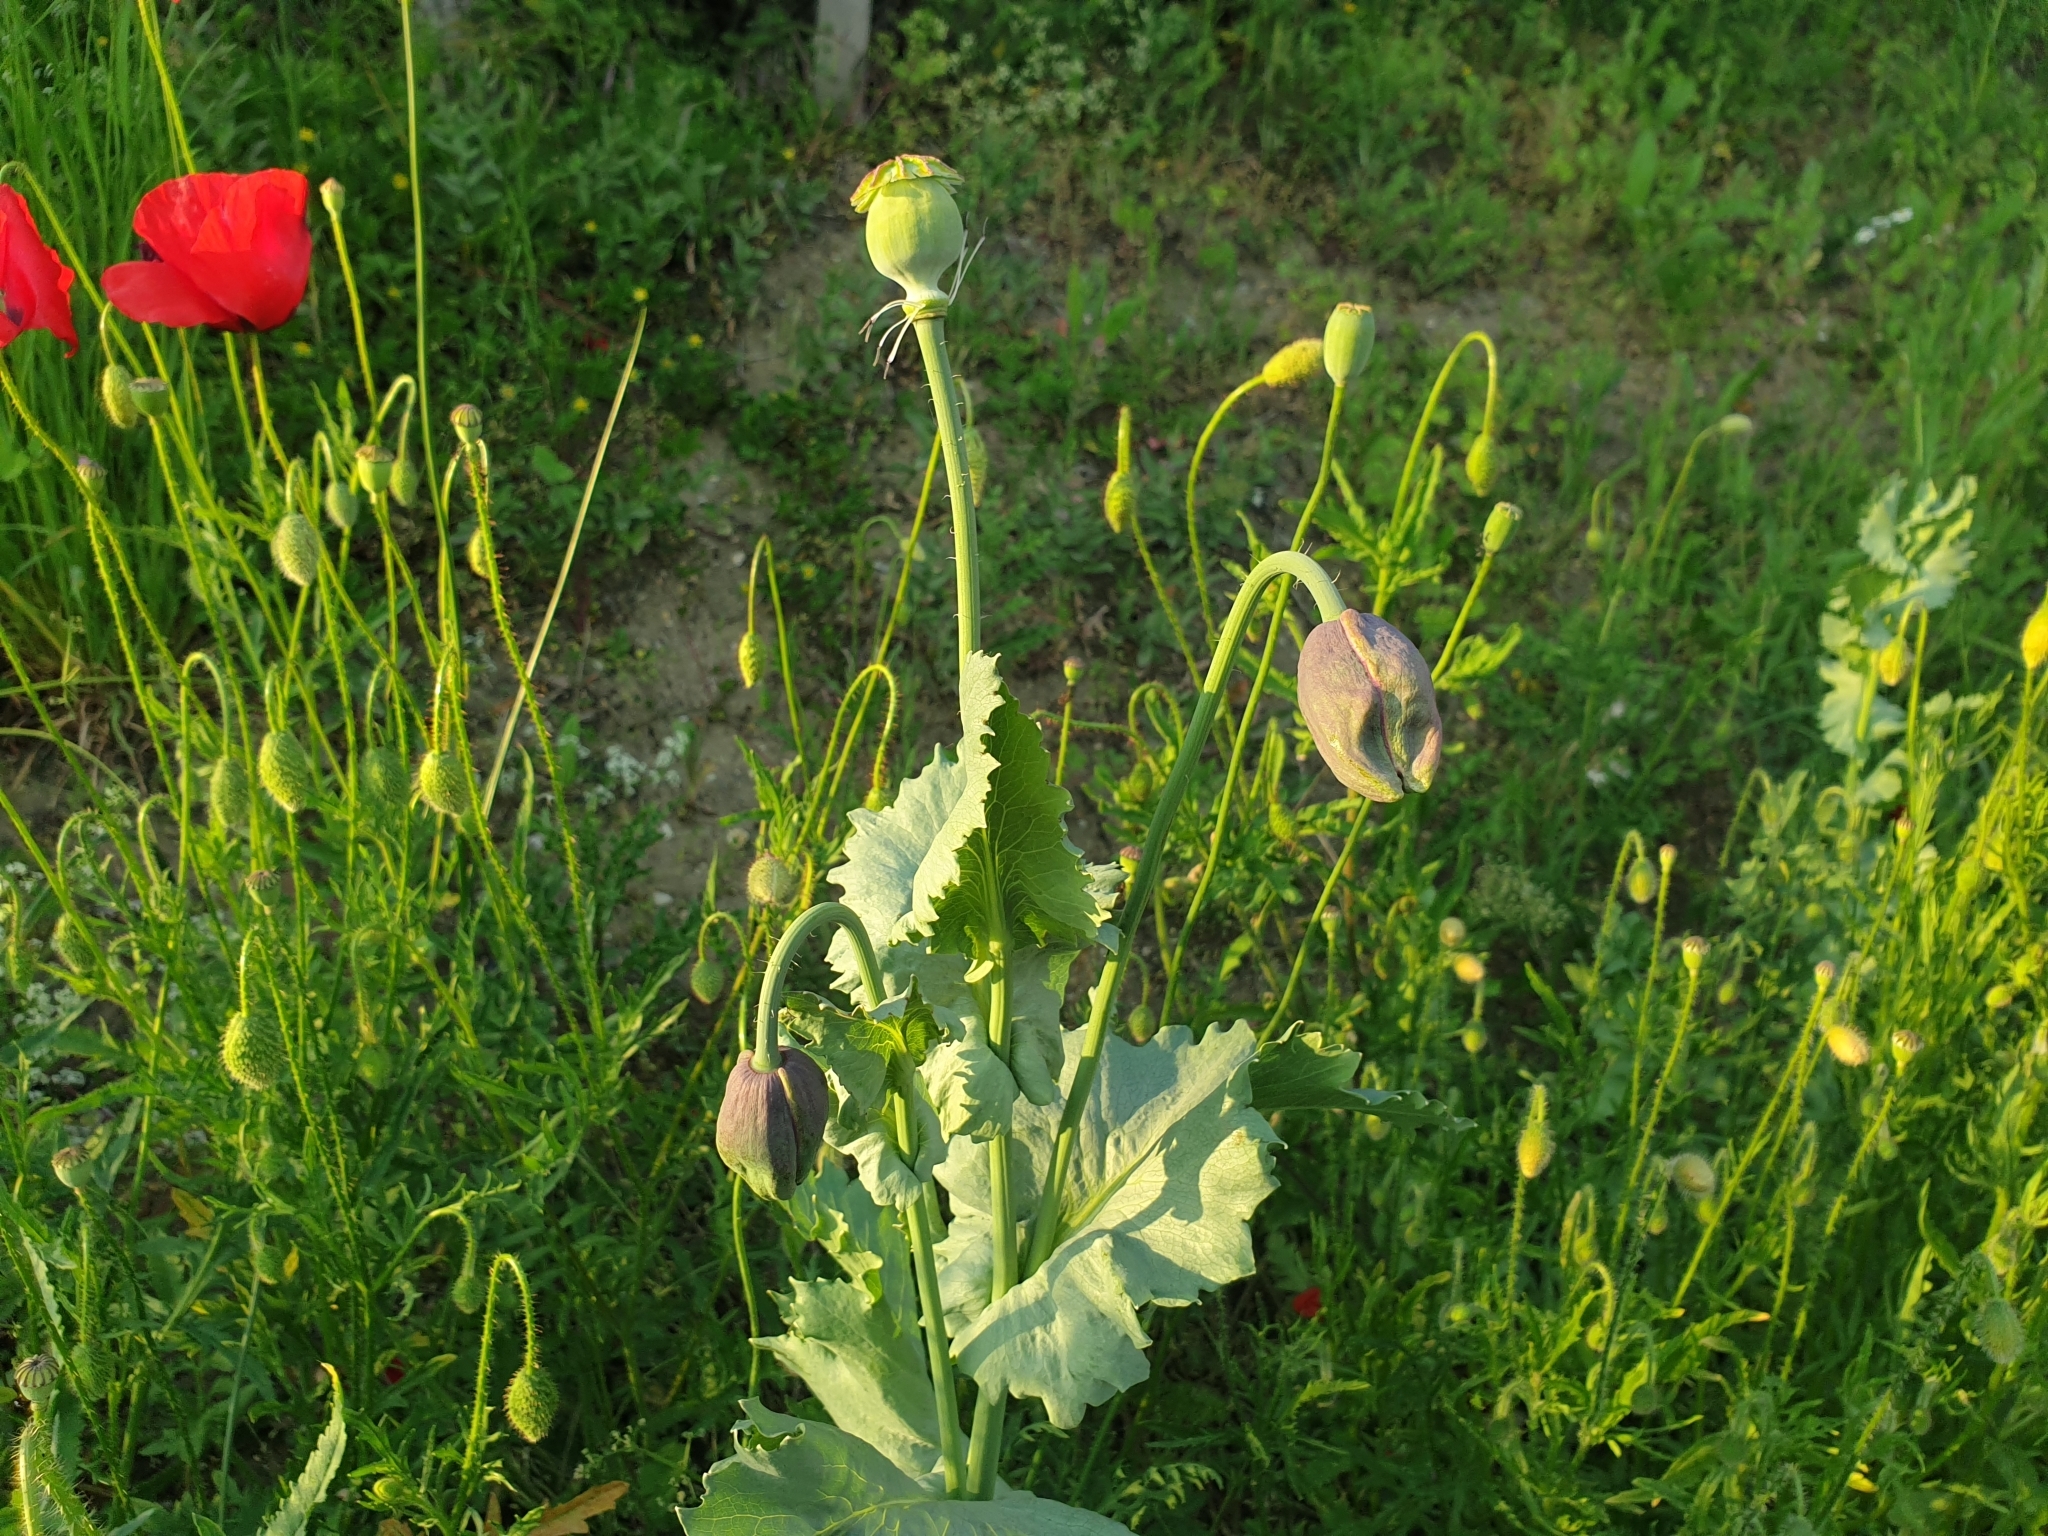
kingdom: Plantae
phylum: Tracheophyta
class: Magnoliopsida
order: Ranunculales
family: Papaveraceae
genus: Papaver
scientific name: Papaver somniferum
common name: Opium poppy
